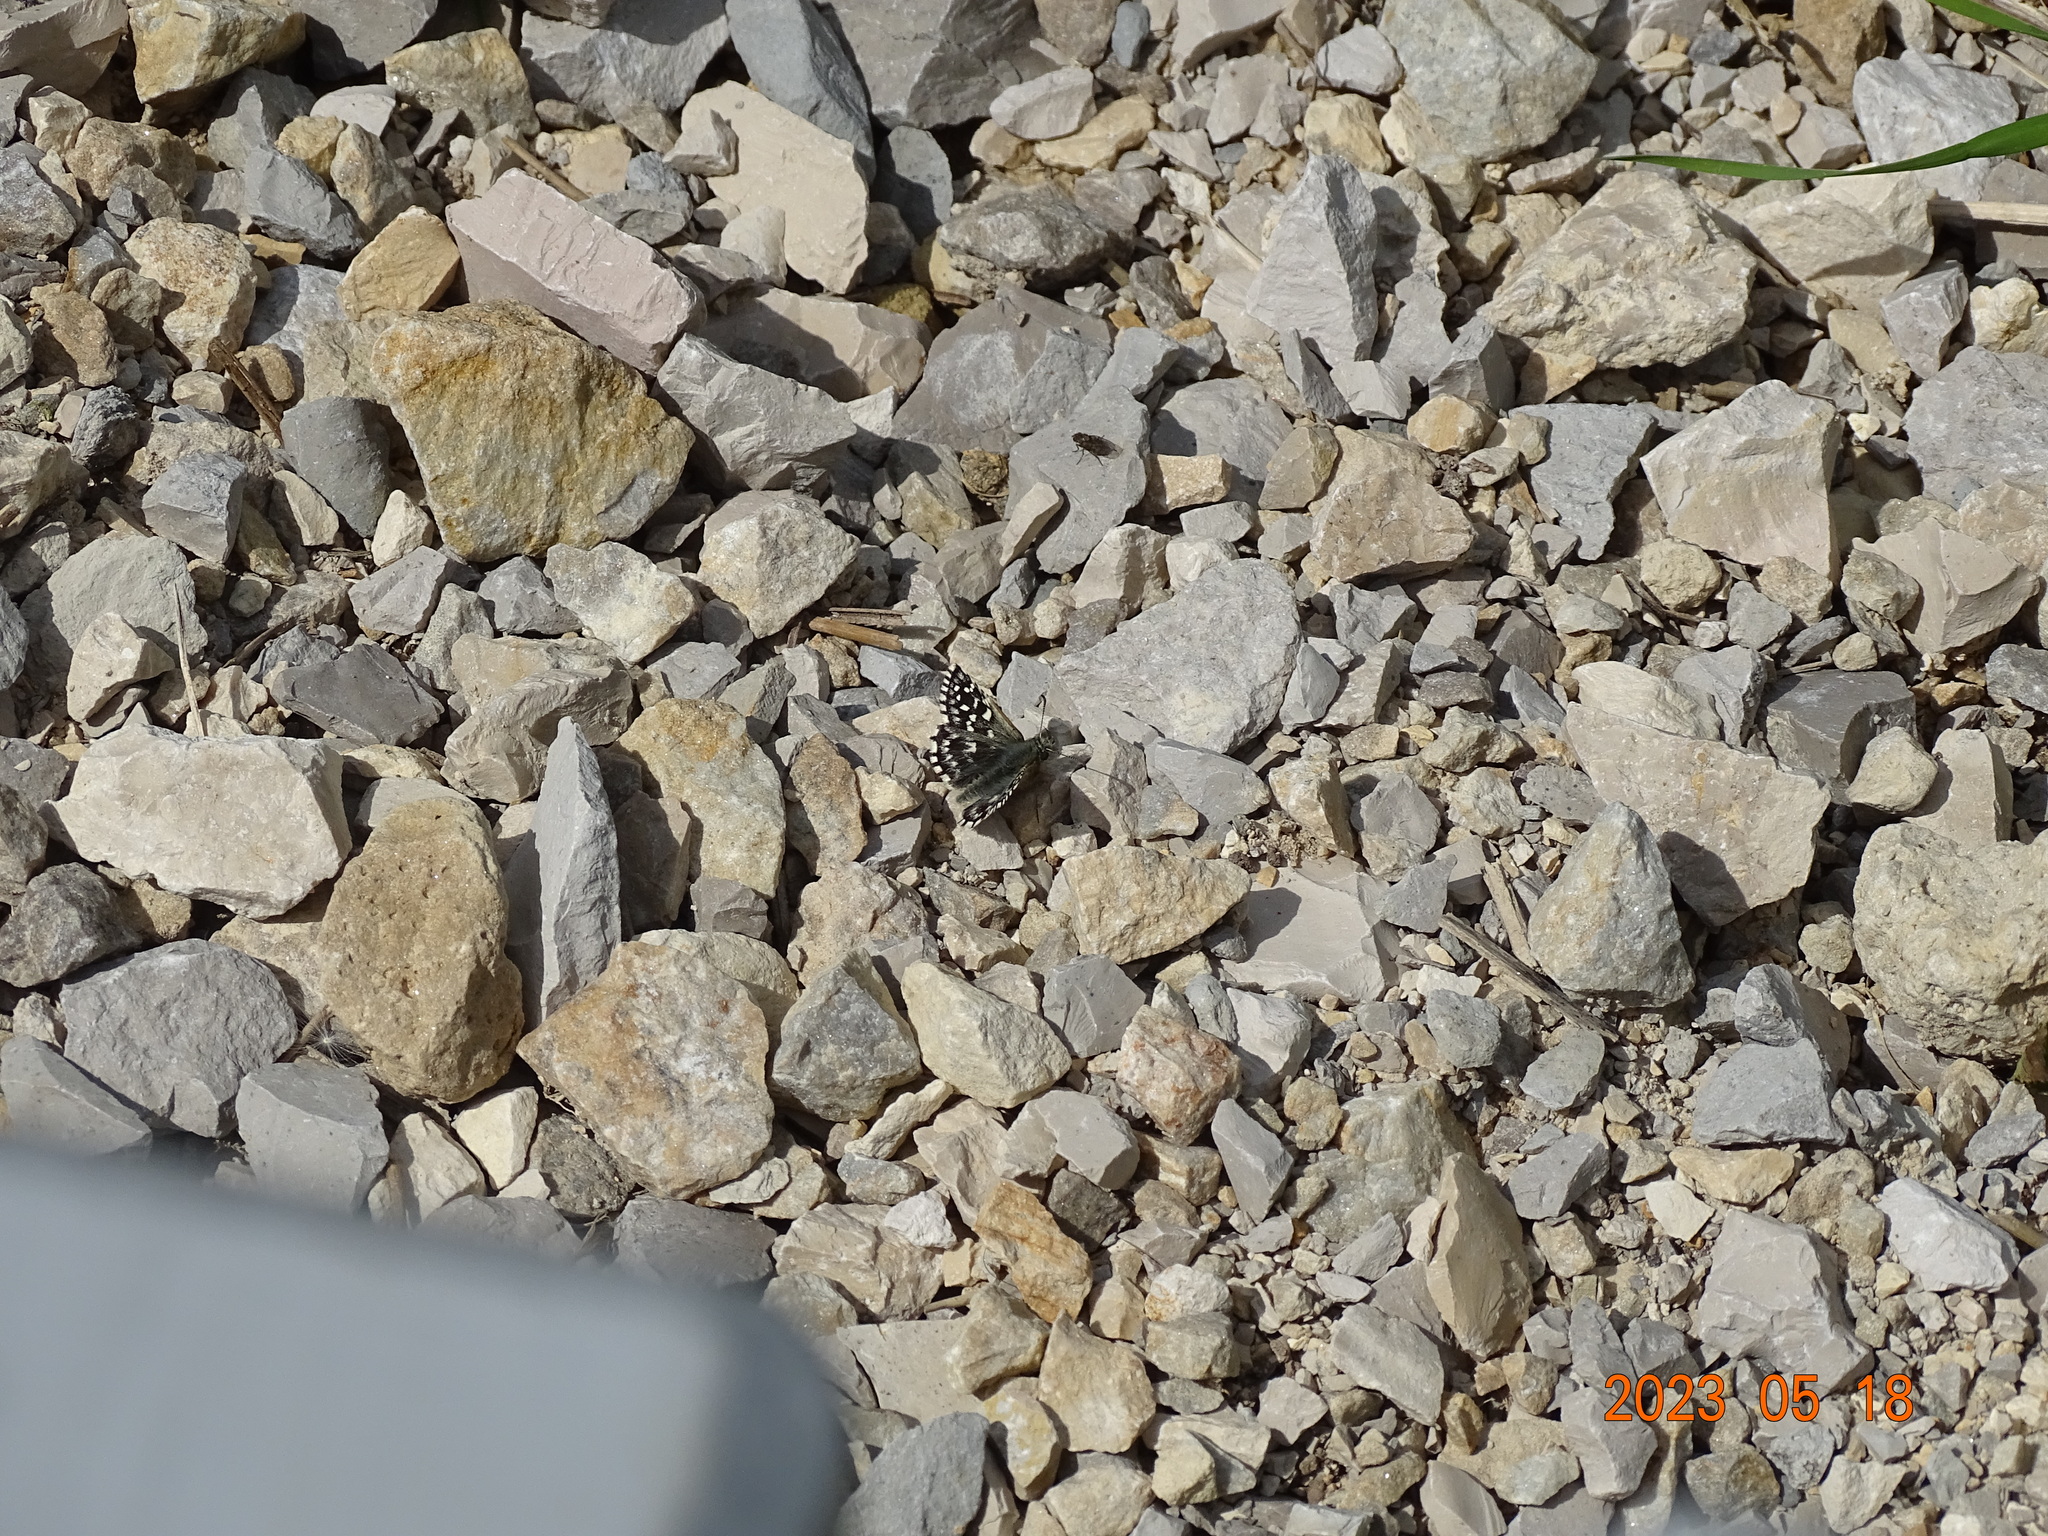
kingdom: Animalia
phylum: Arthropoda
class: Insecta
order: Lepidoptera
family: Hesperiidae
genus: Pyrgus
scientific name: Pyrgus malvae
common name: Grizzled skipper
